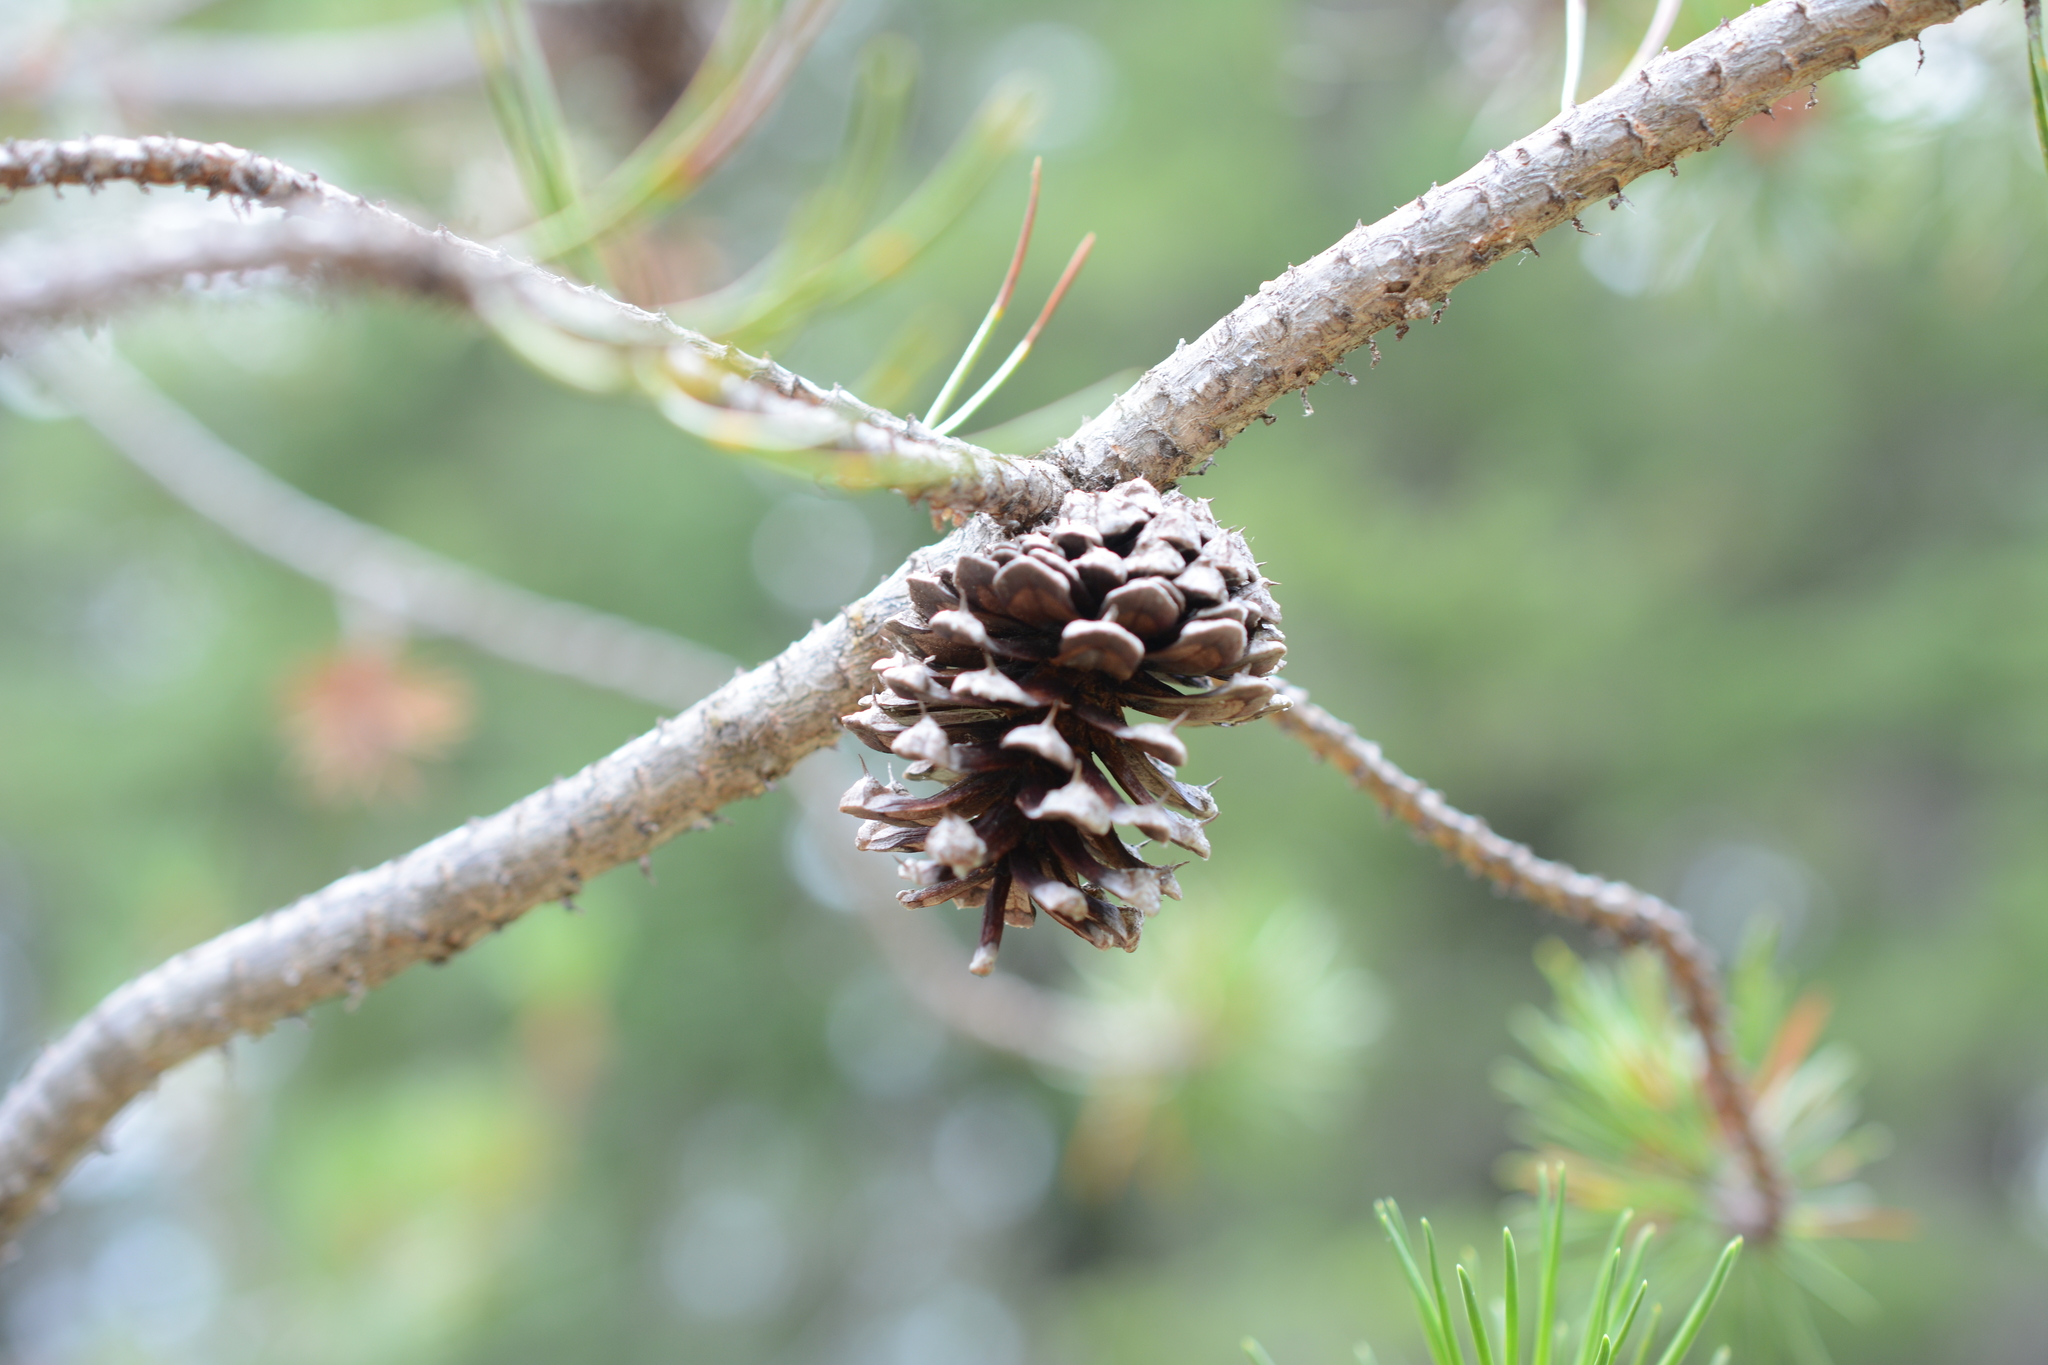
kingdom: Plantae
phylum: Tracheophyta
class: Pinopsida
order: Pinales
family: Pinaceae
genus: Pinus
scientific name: Pinus contorta
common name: Lodgepole pine
